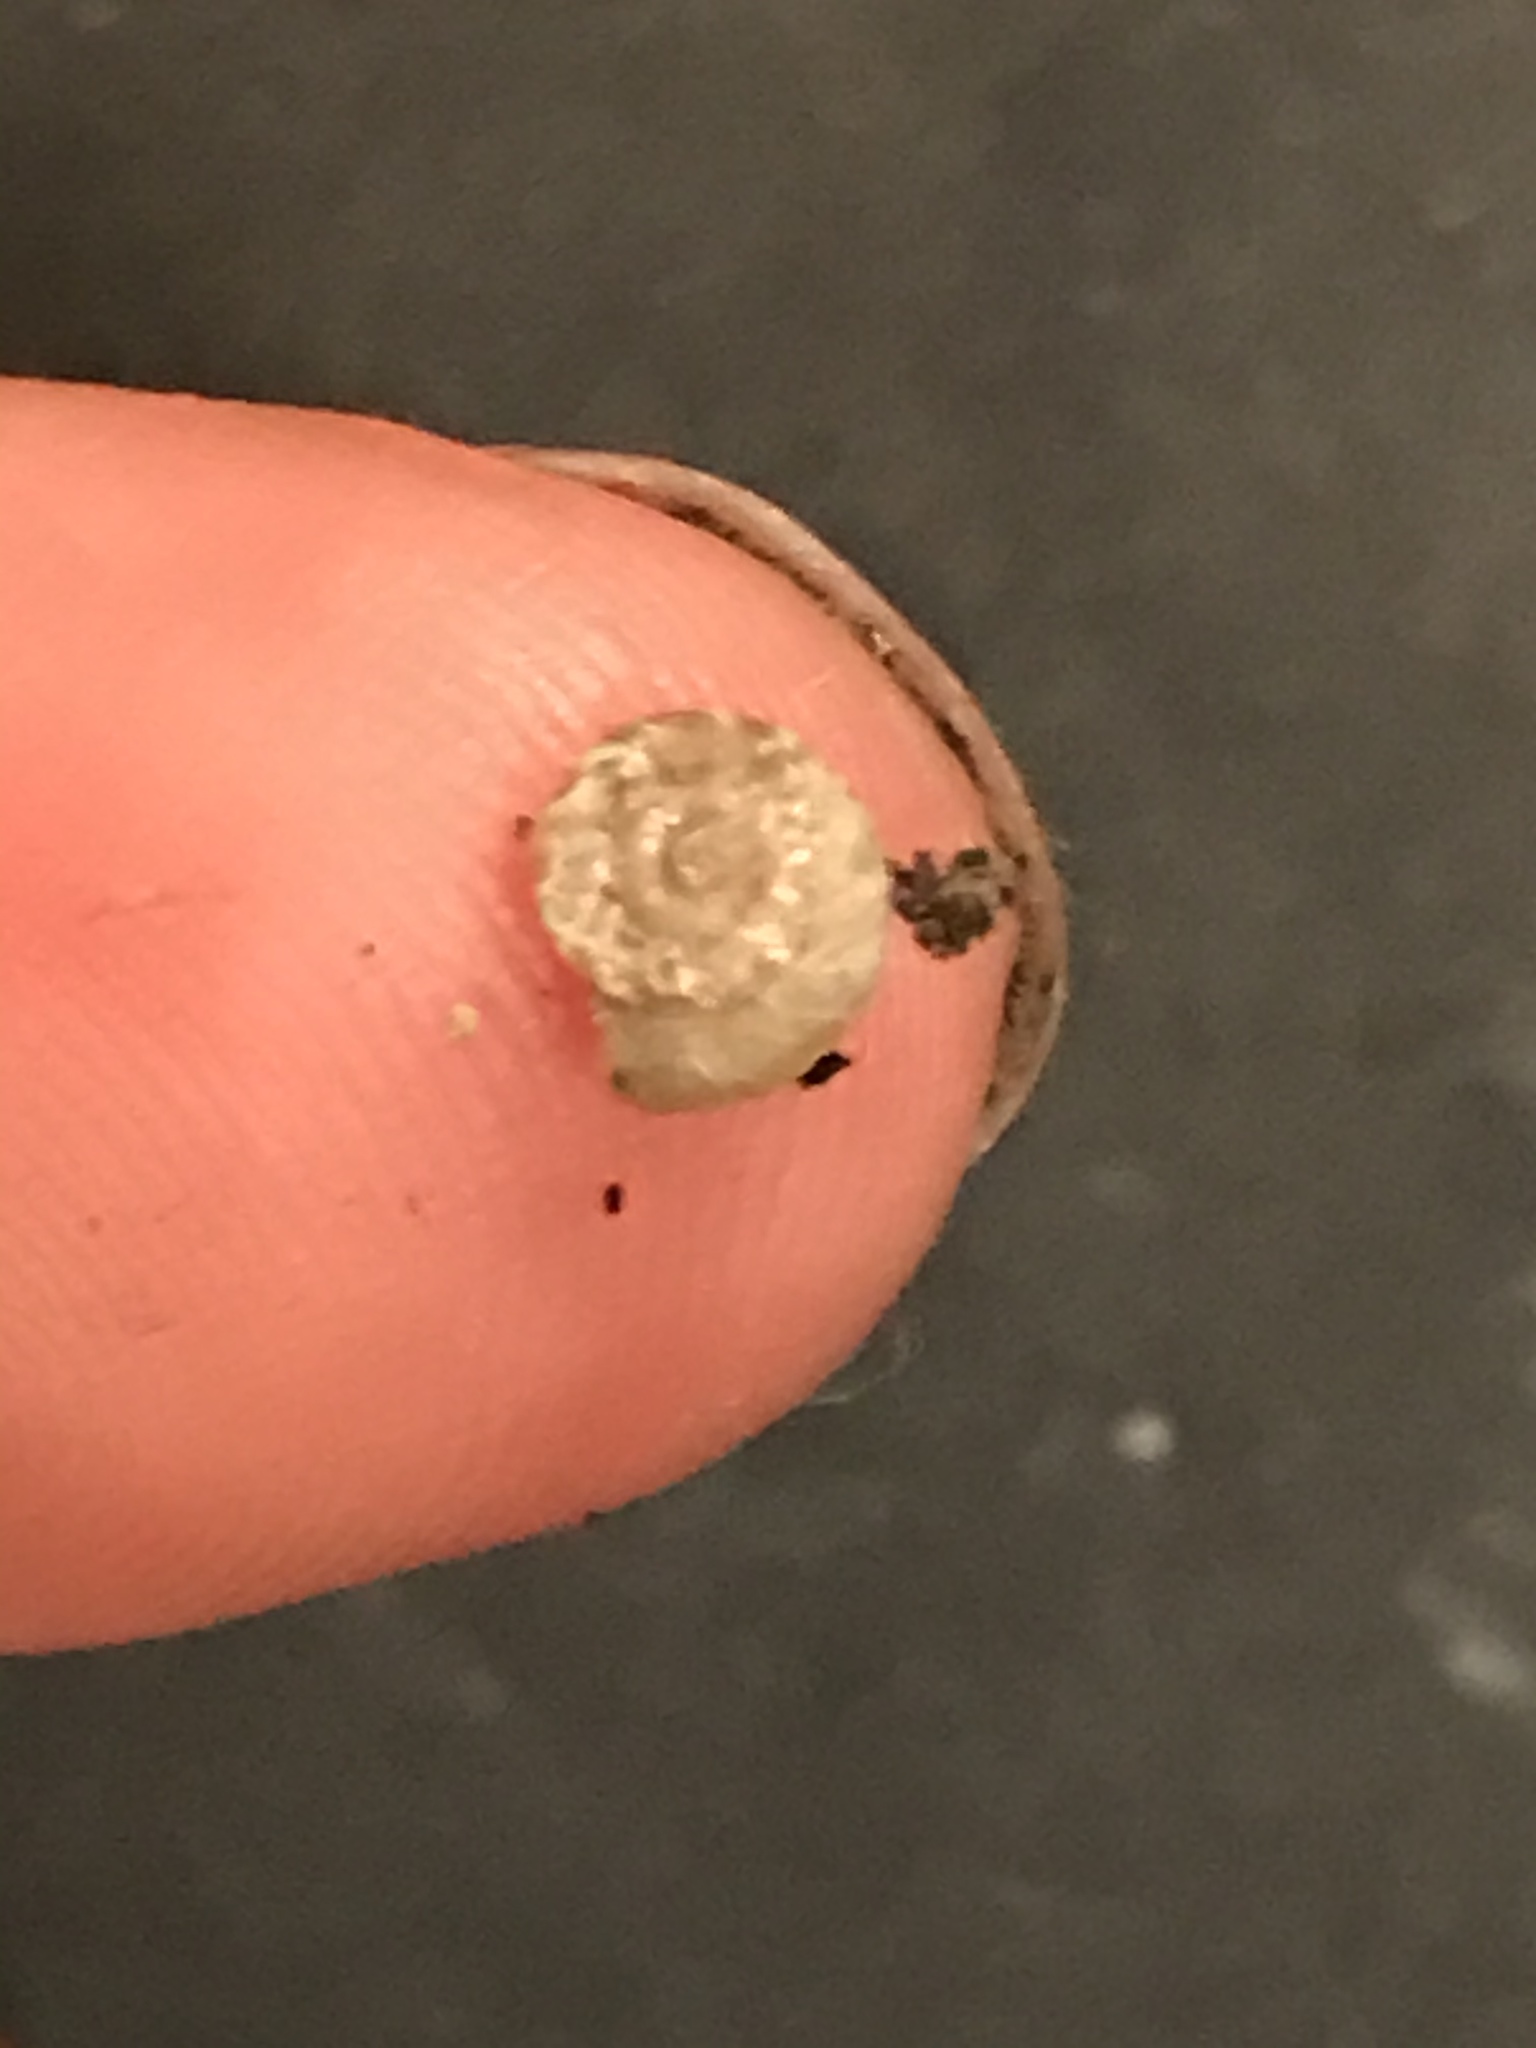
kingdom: Animalia
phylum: Mollusca
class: Gastropoda
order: Stylommatophora
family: Geomitridae
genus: Xerotricha
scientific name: Xerotricha conspurcata
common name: Snail
